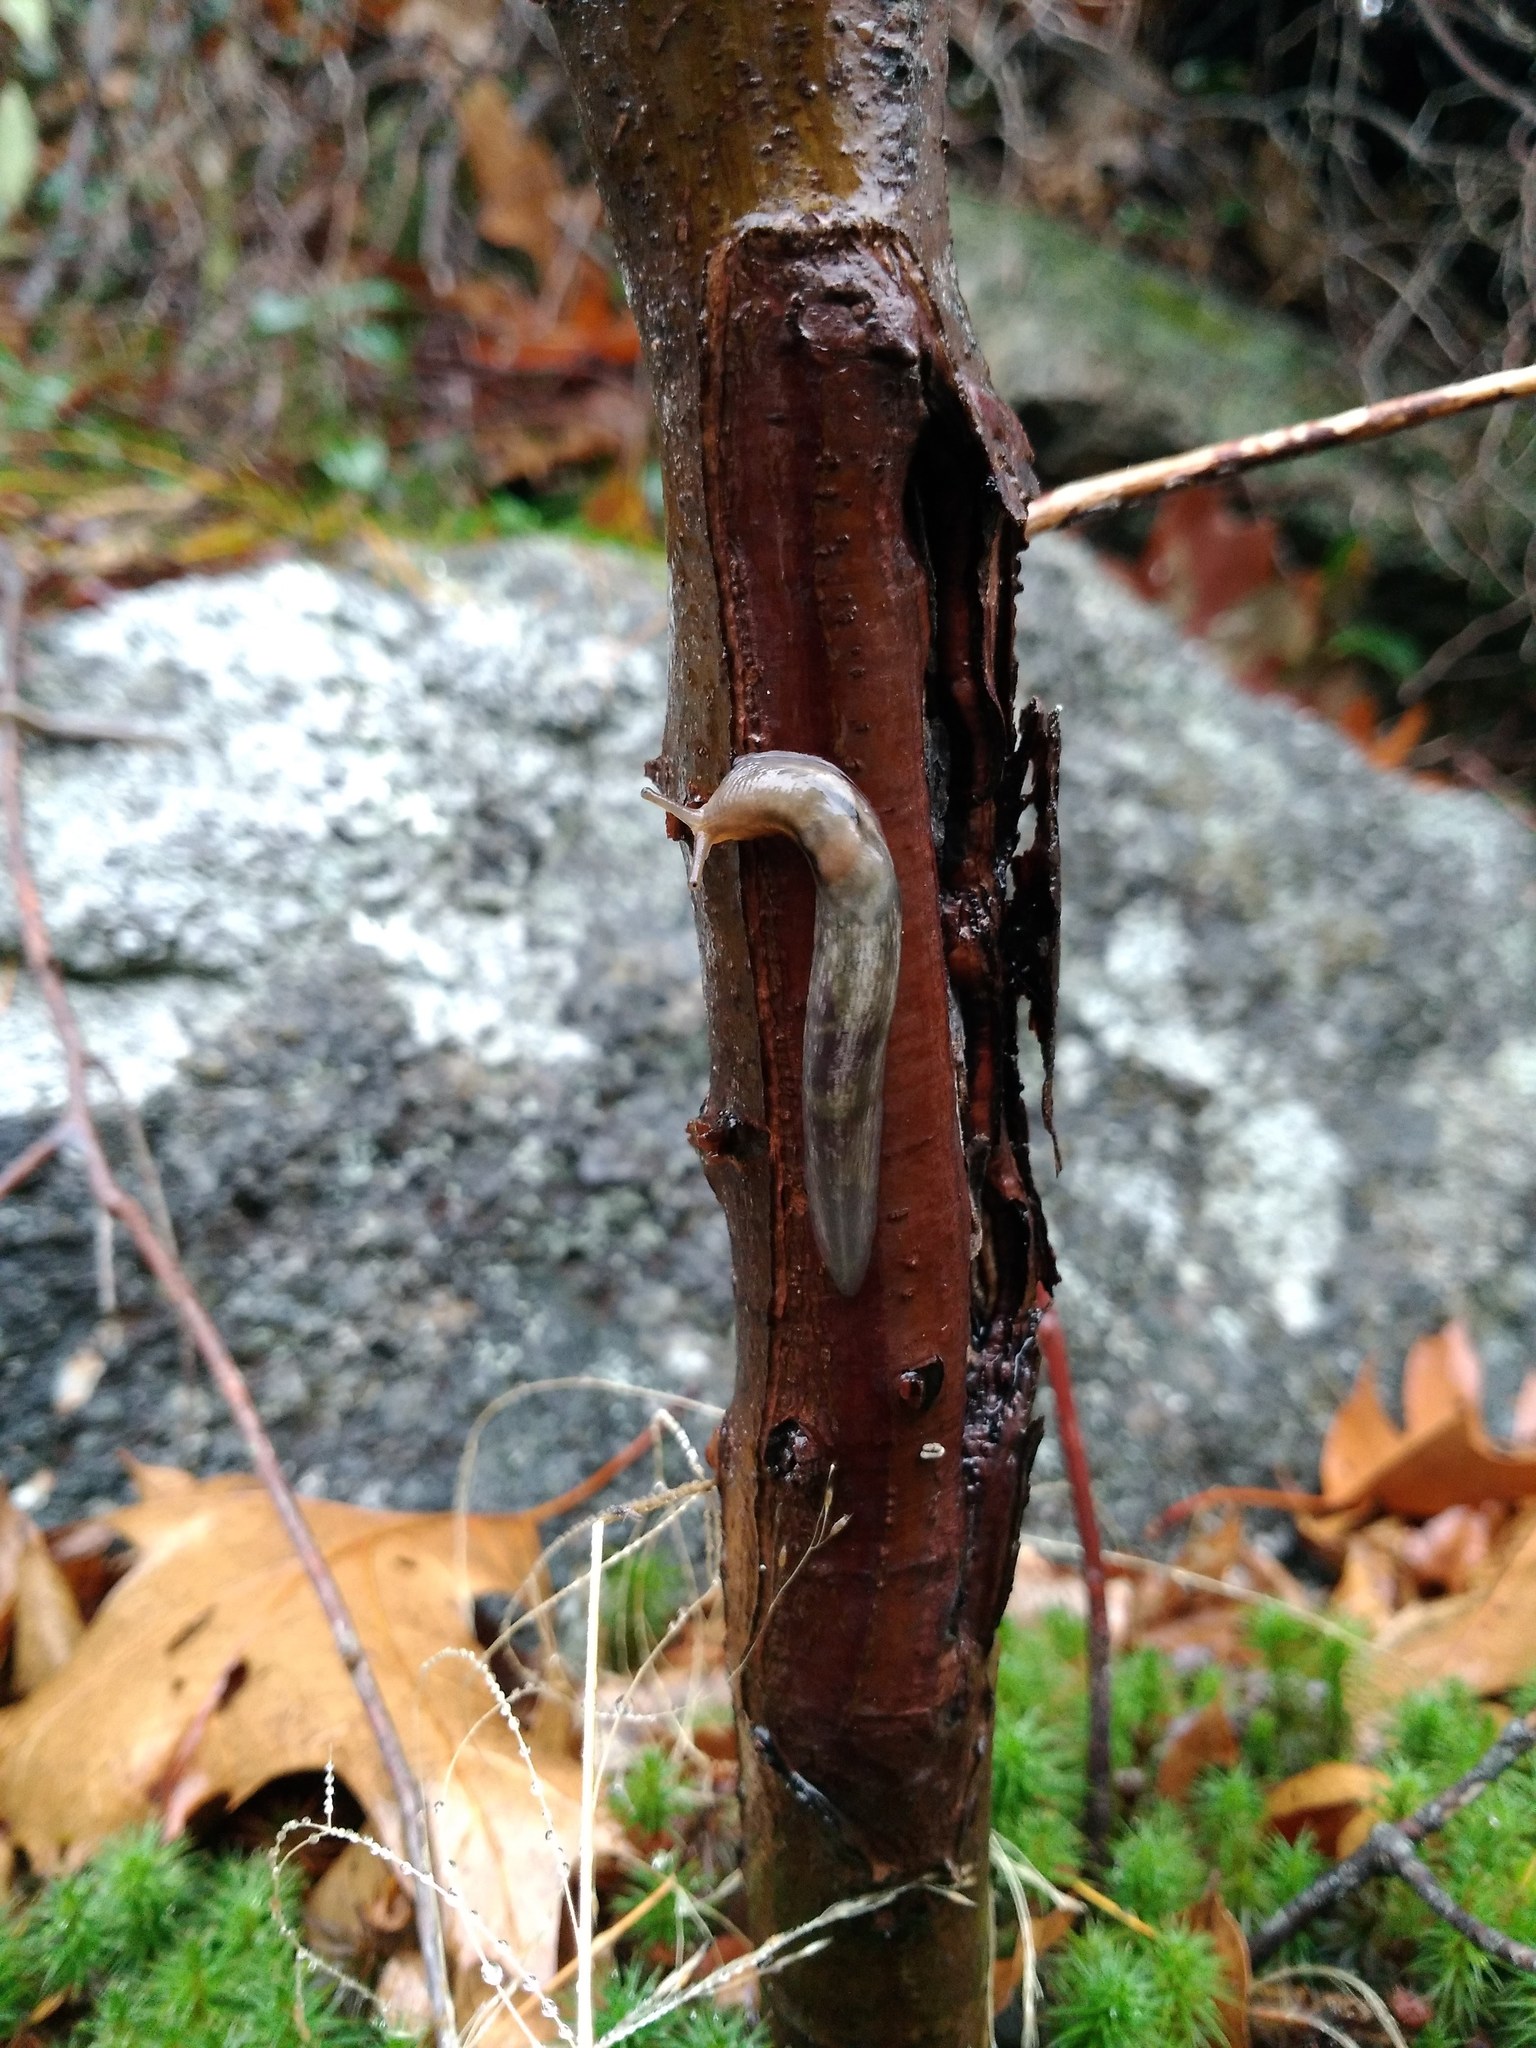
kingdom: Animalia
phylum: Mollusca
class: Gastropoda
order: Stylommatophora
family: Limacidae
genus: Lehmannia
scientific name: Lehmannia marginata
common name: Tree slug
